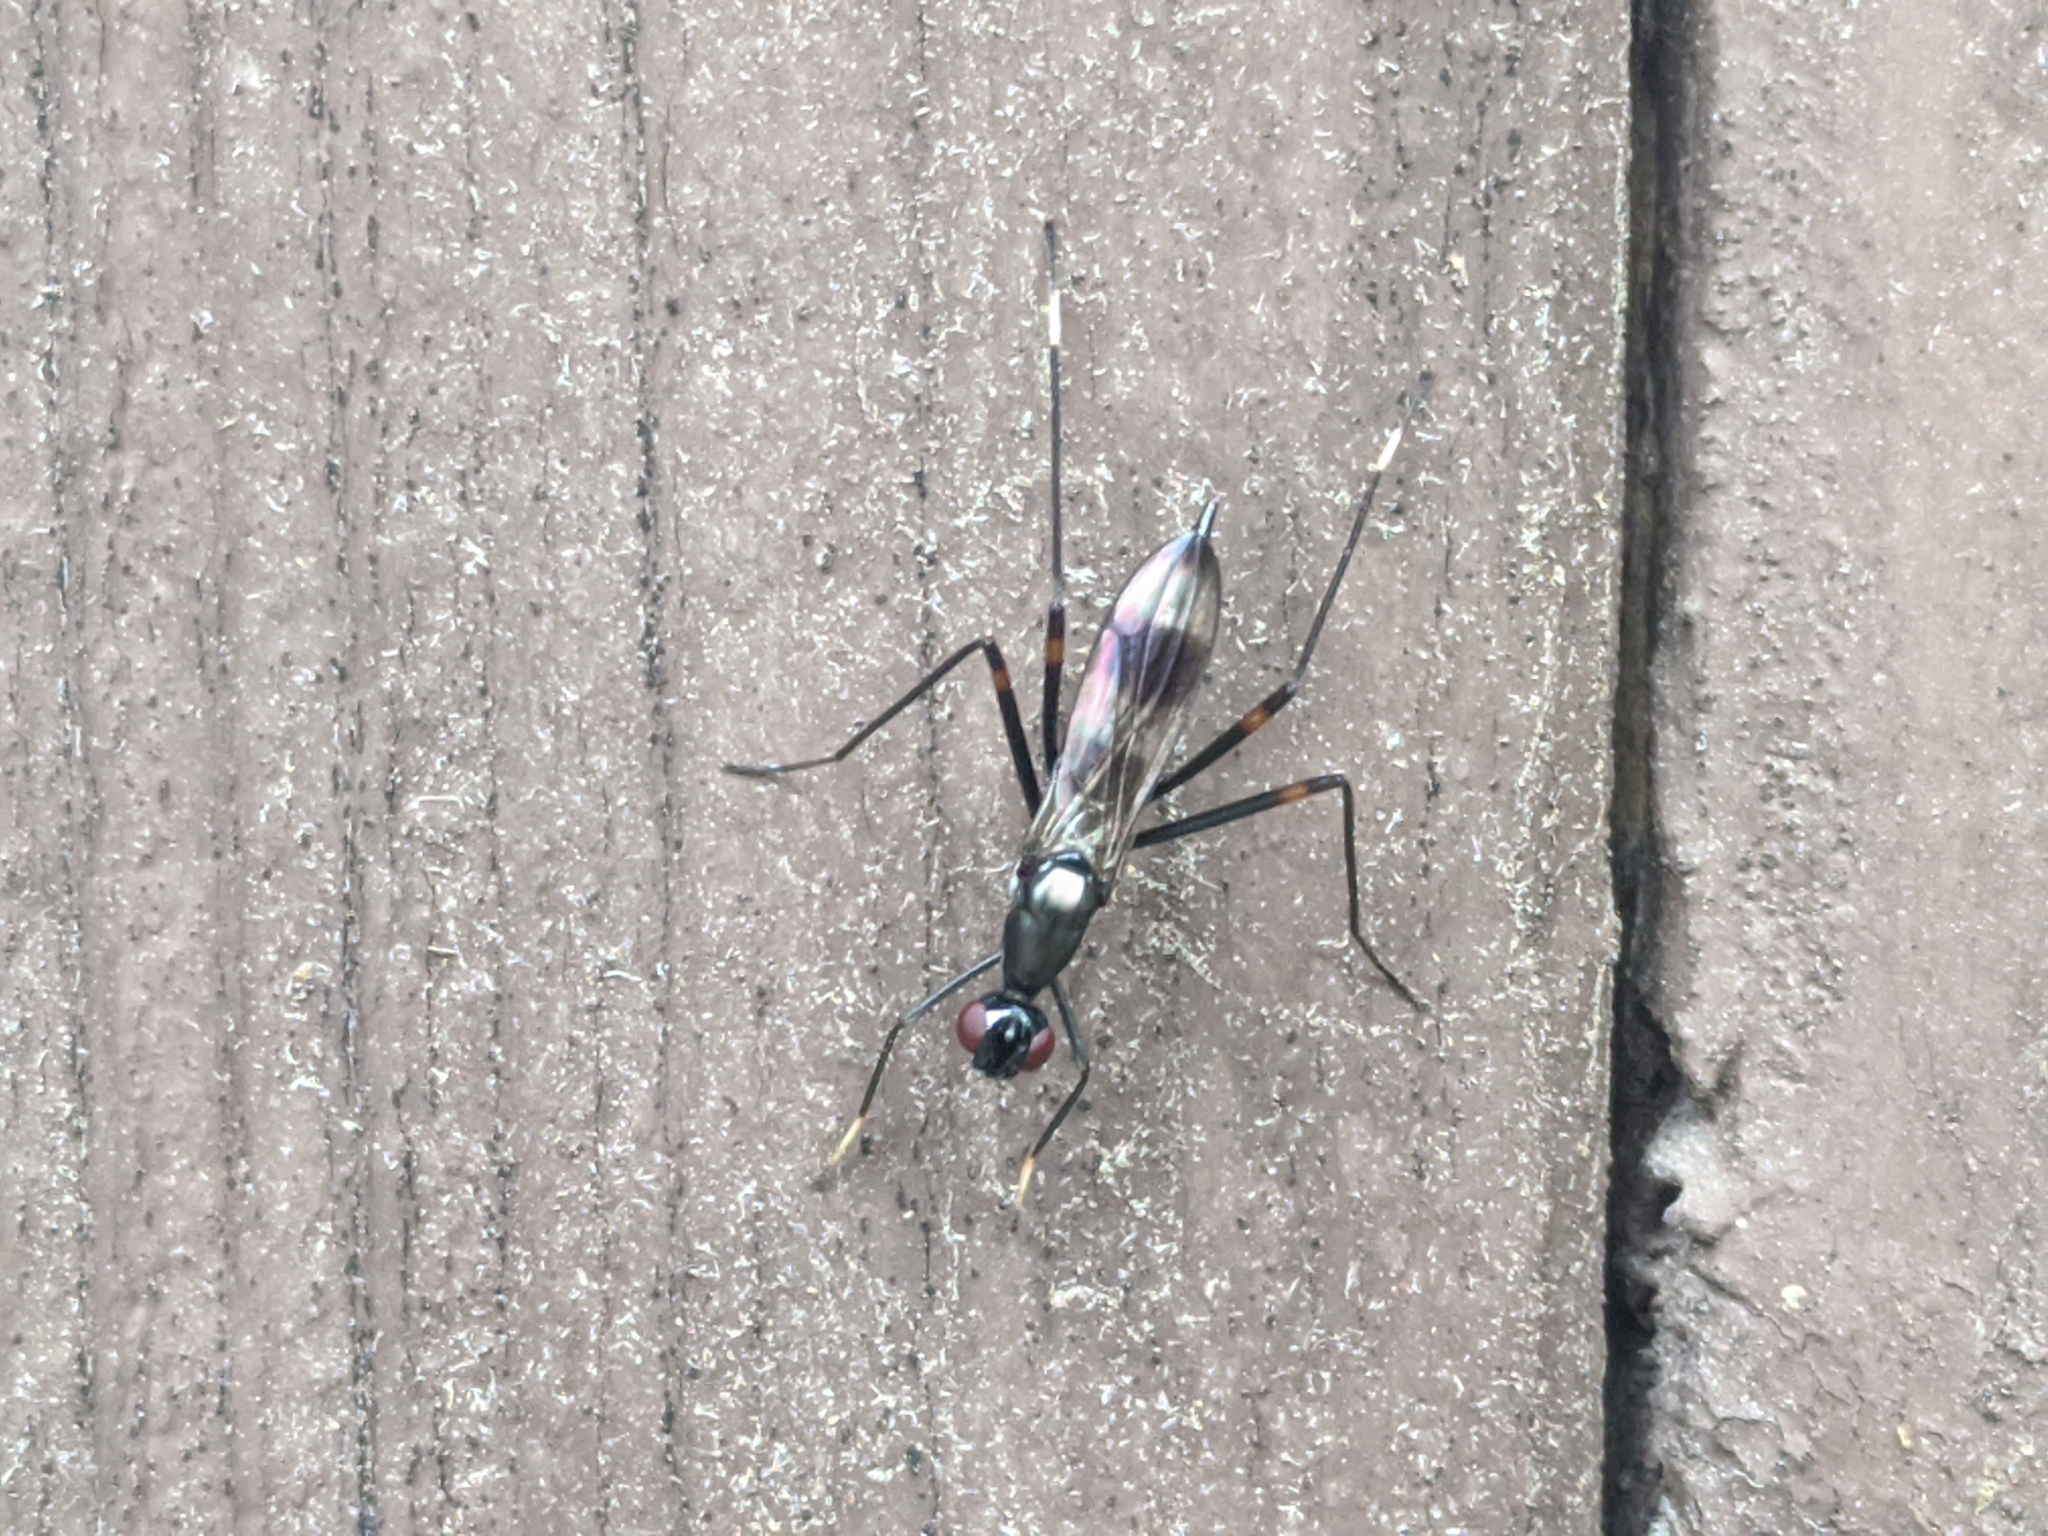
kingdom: Animalia
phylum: Arthropoda
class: Insecta
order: Diptera
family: Micropezidae
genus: Rainieria
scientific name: Rainieria calceata
